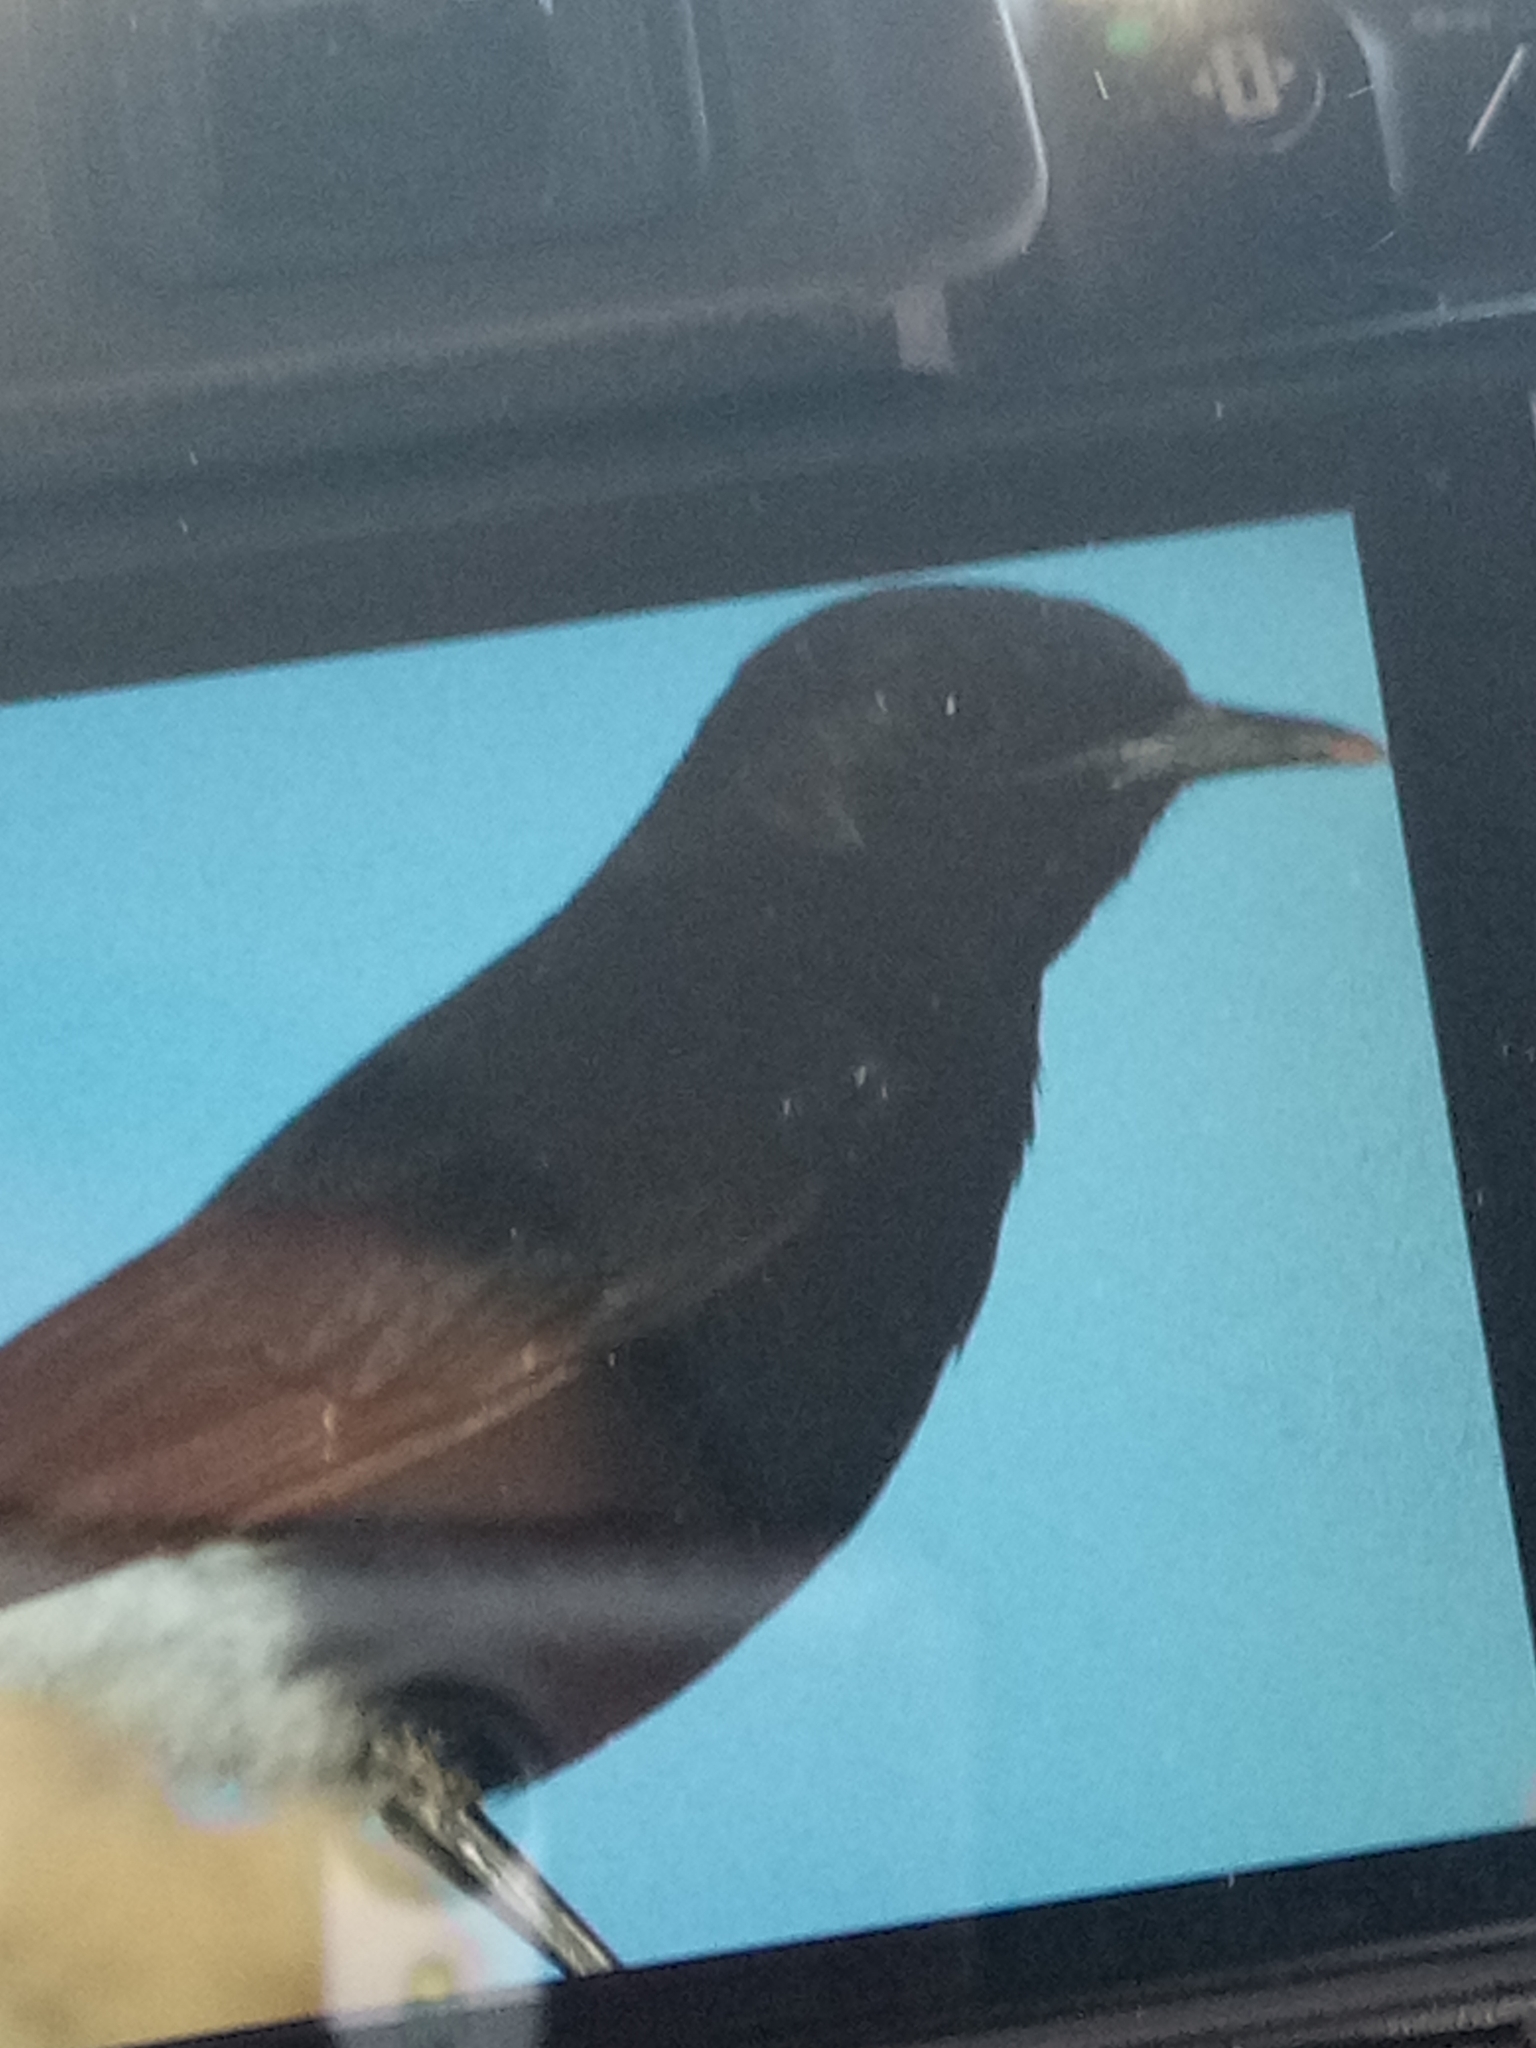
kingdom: Animalia
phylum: Chordata
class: Aves
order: Passeriformes
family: Muscicapidae
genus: Oenanthe
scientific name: Oenanthe leucopyga
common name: White-crowned wheatear
